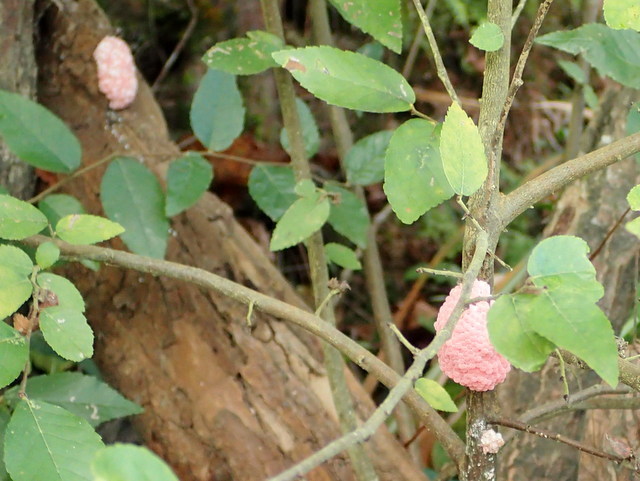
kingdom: Animalia
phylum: Mollusca
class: Gastropoda
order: Architaenioglossa
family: Ampullariidae
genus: Pomacea
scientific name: Pomacea maculata
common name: Giant applesnail
